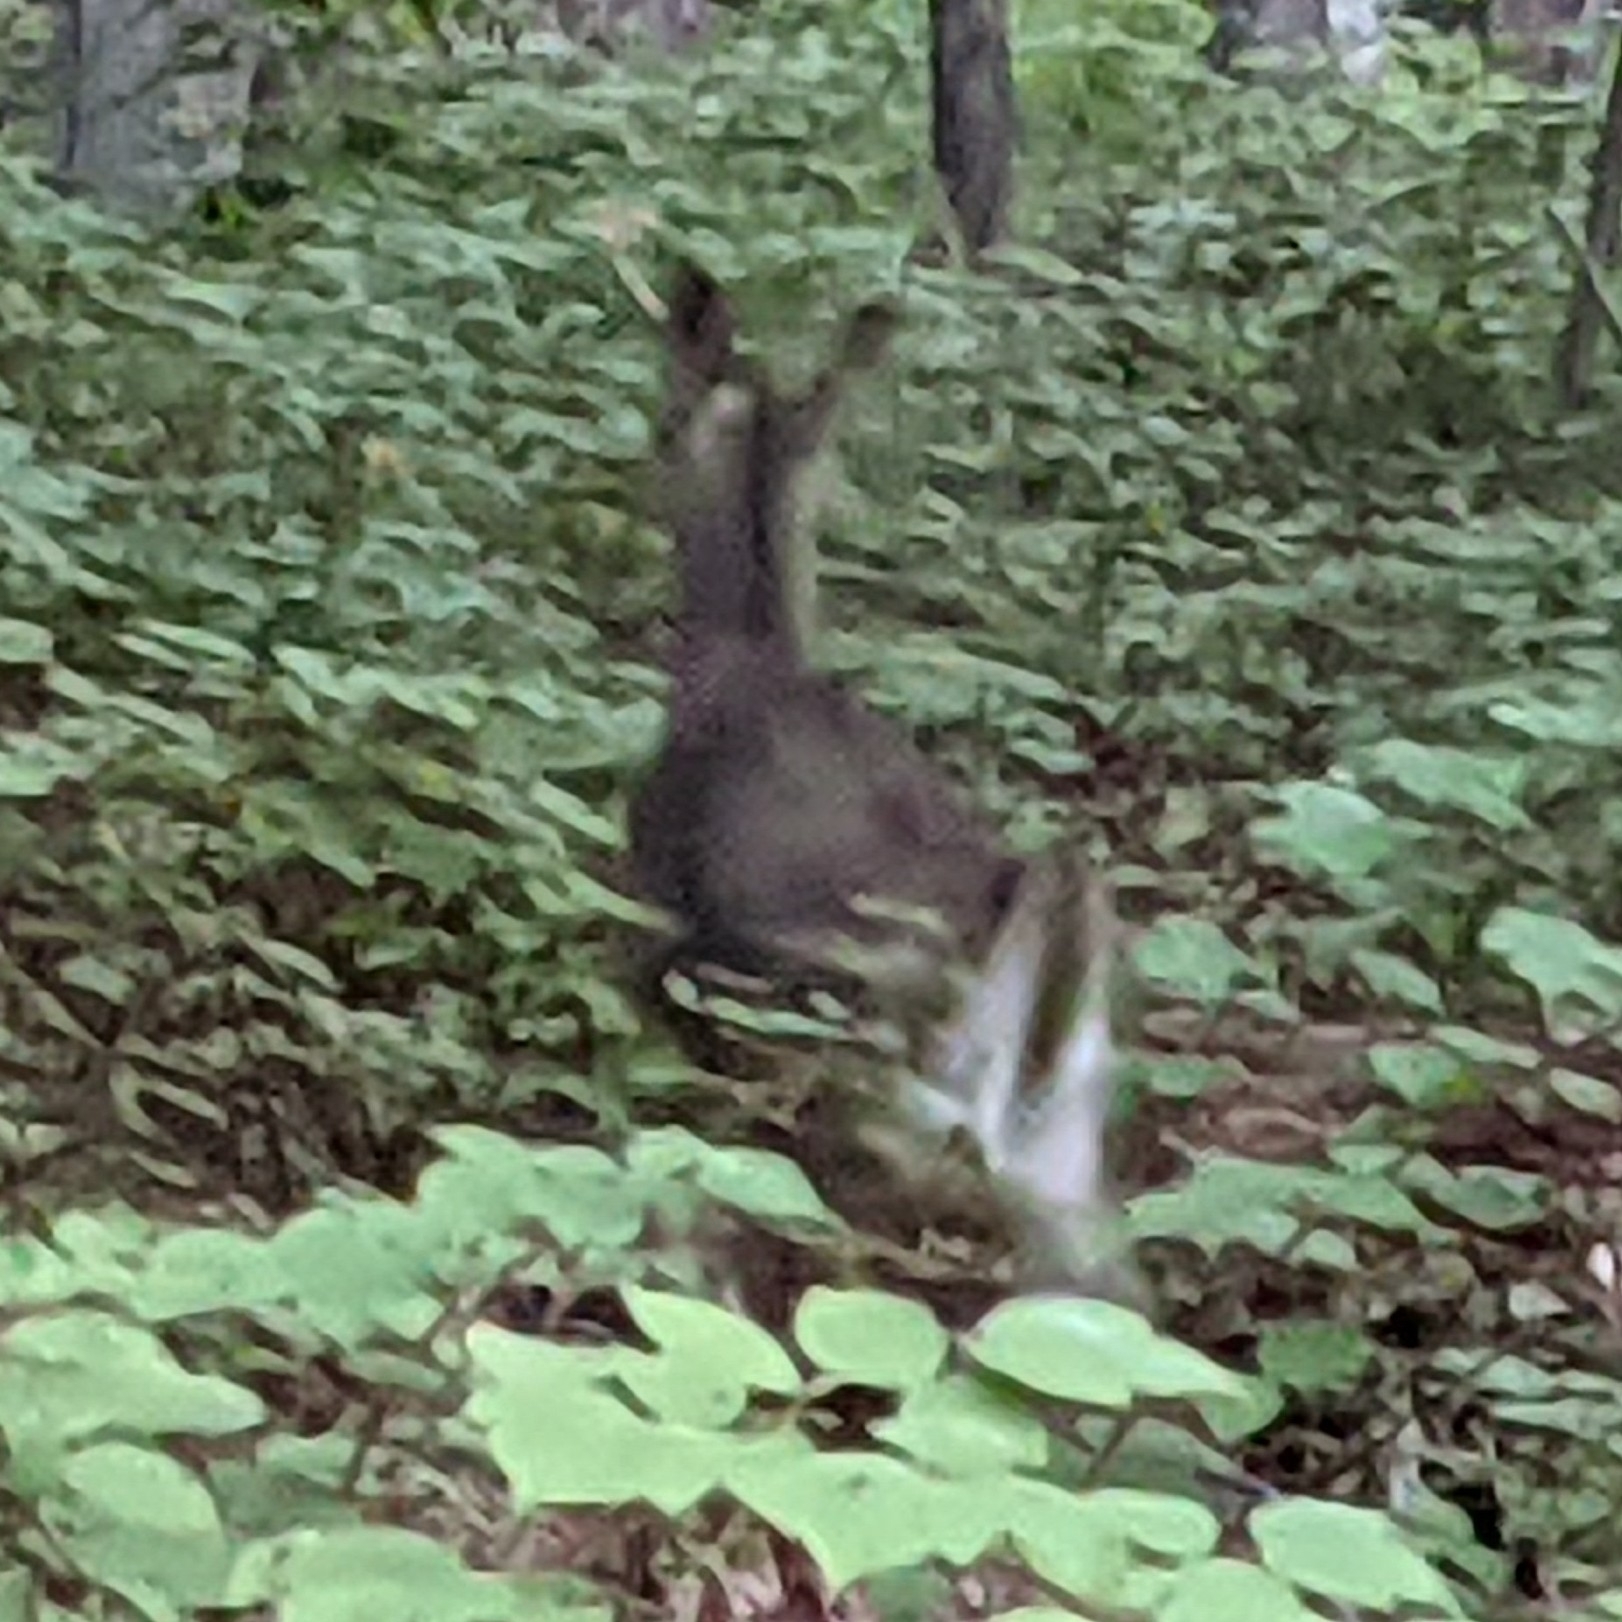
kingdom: Animalia
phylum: Chordata
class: Mammalia
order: Artiodactyla
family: Cervidae
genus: Odocoileus
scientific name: Odocoileus virginianus
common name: White-tailed deer
